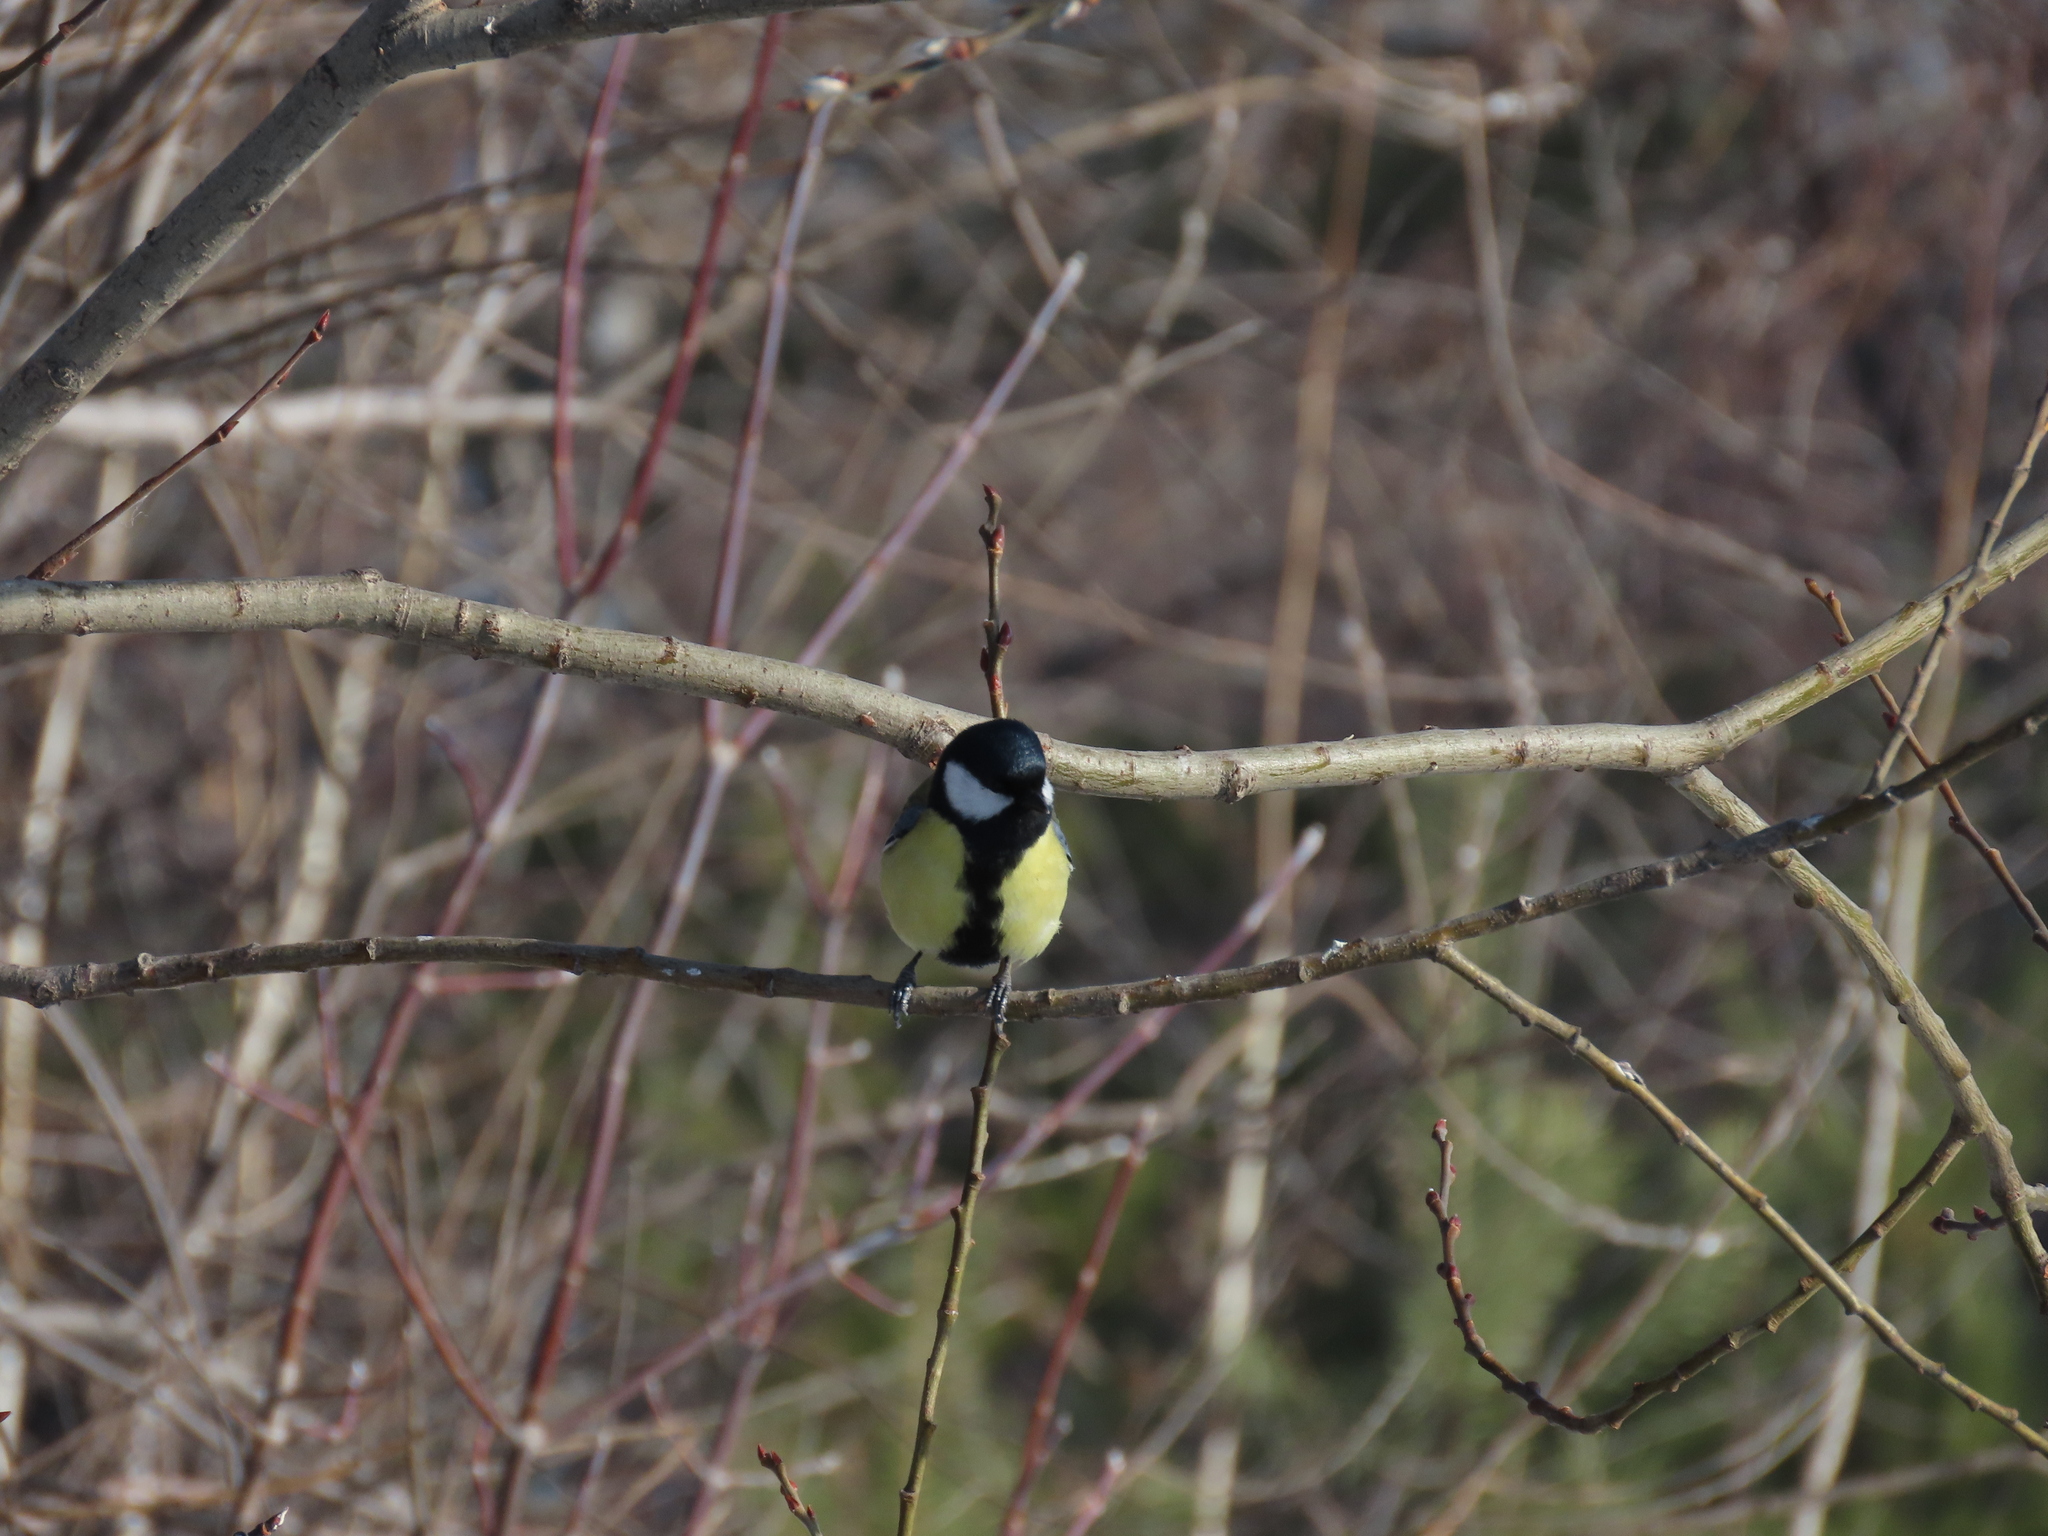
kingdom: Animalia
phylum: Chordata
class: Aves
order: Passeriformes
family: Paridae
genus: Parus
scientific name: Parus major
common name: Great tit
